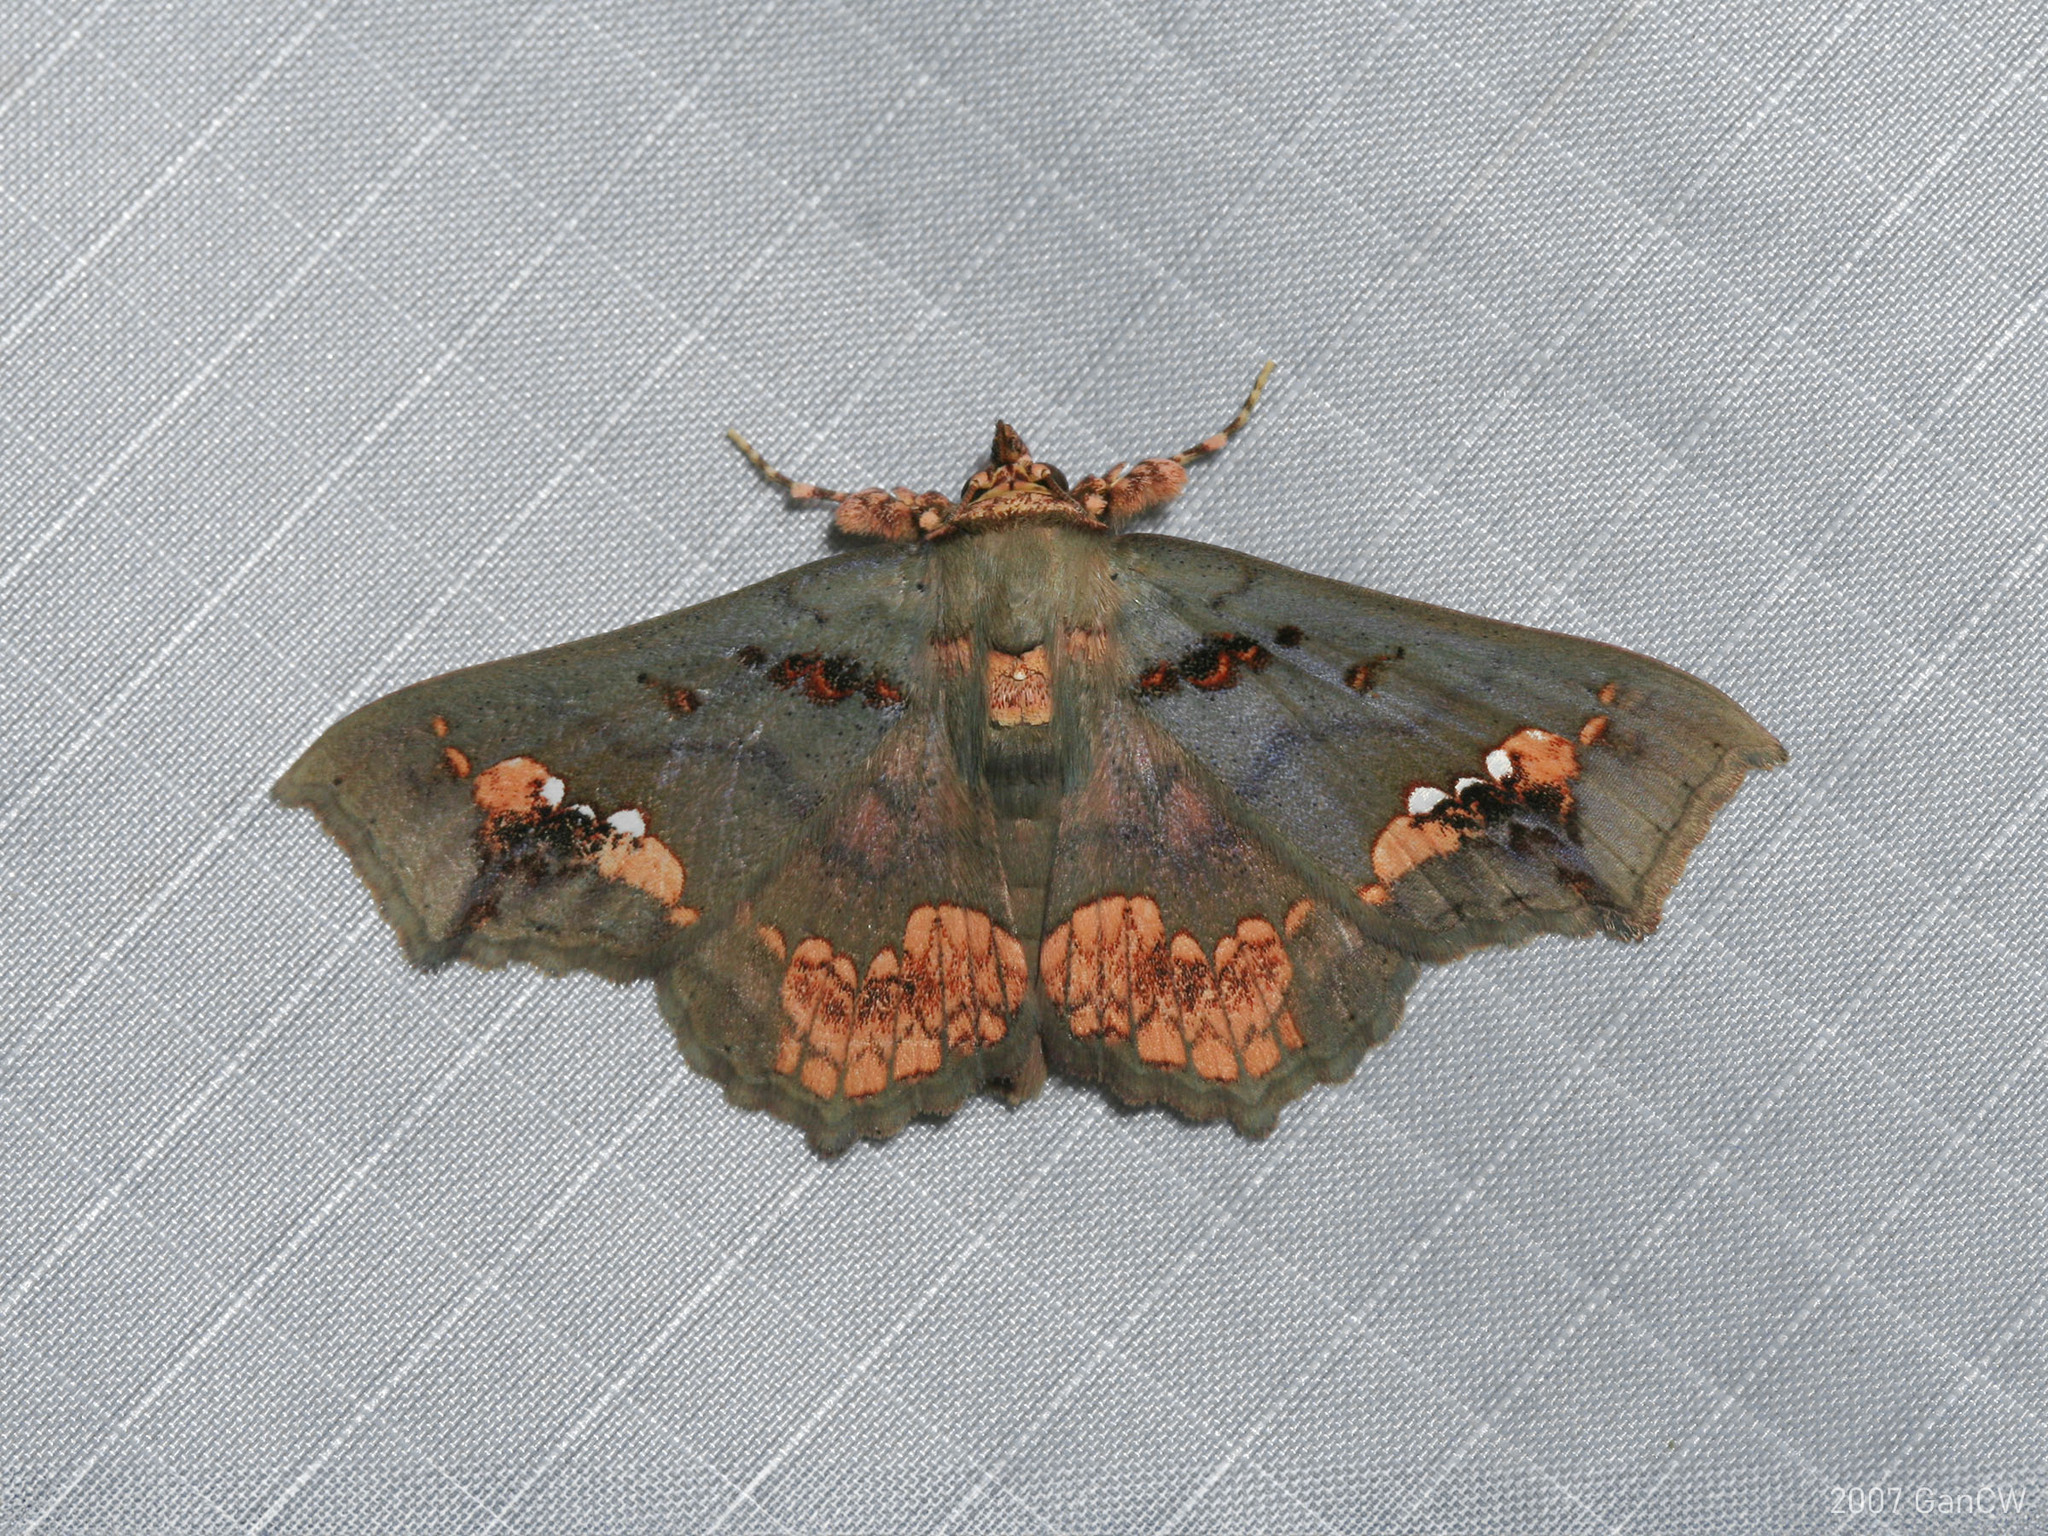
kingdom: Animalia
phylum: Arthropoda
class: Insecta
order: Lepidoptera
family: Erebidae
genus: Lopharthrum
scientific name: Lopharthrum comprimens
